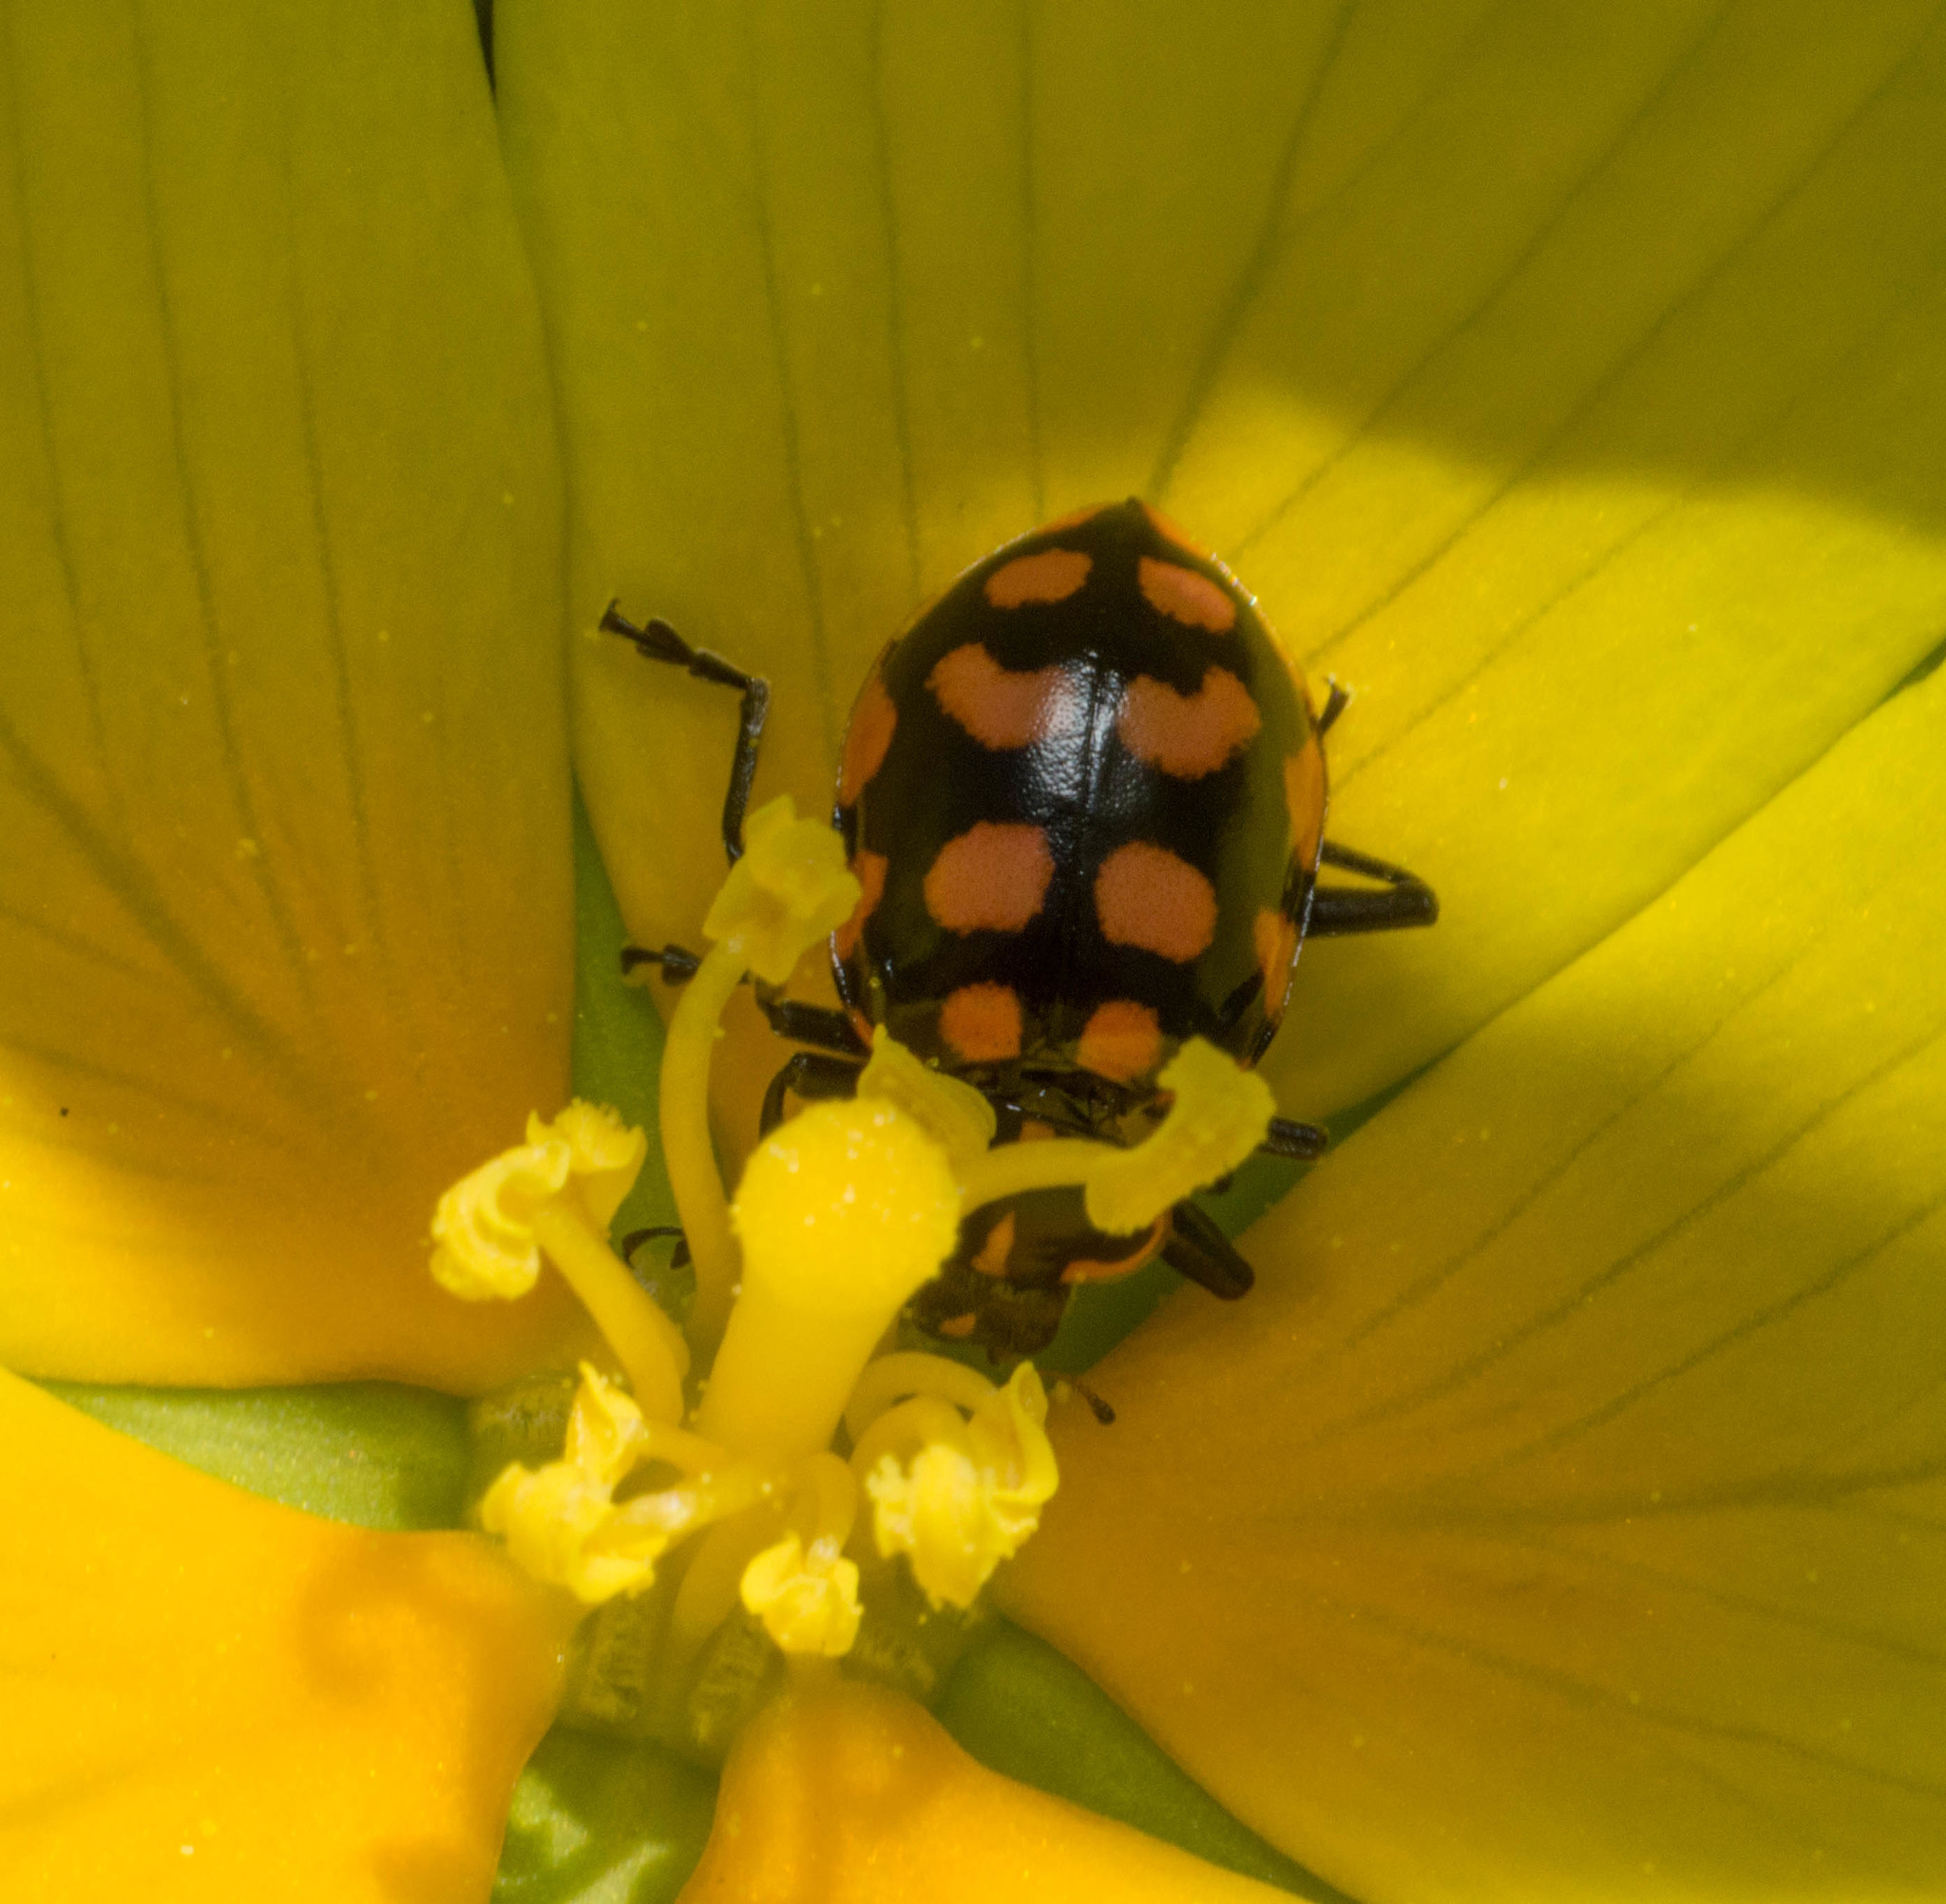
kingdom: Animalia
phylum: Arthropoda
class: Insecta
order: Coleoptera
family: Coccinellidae
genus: Coleomegilla
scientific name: Coleomegilla
